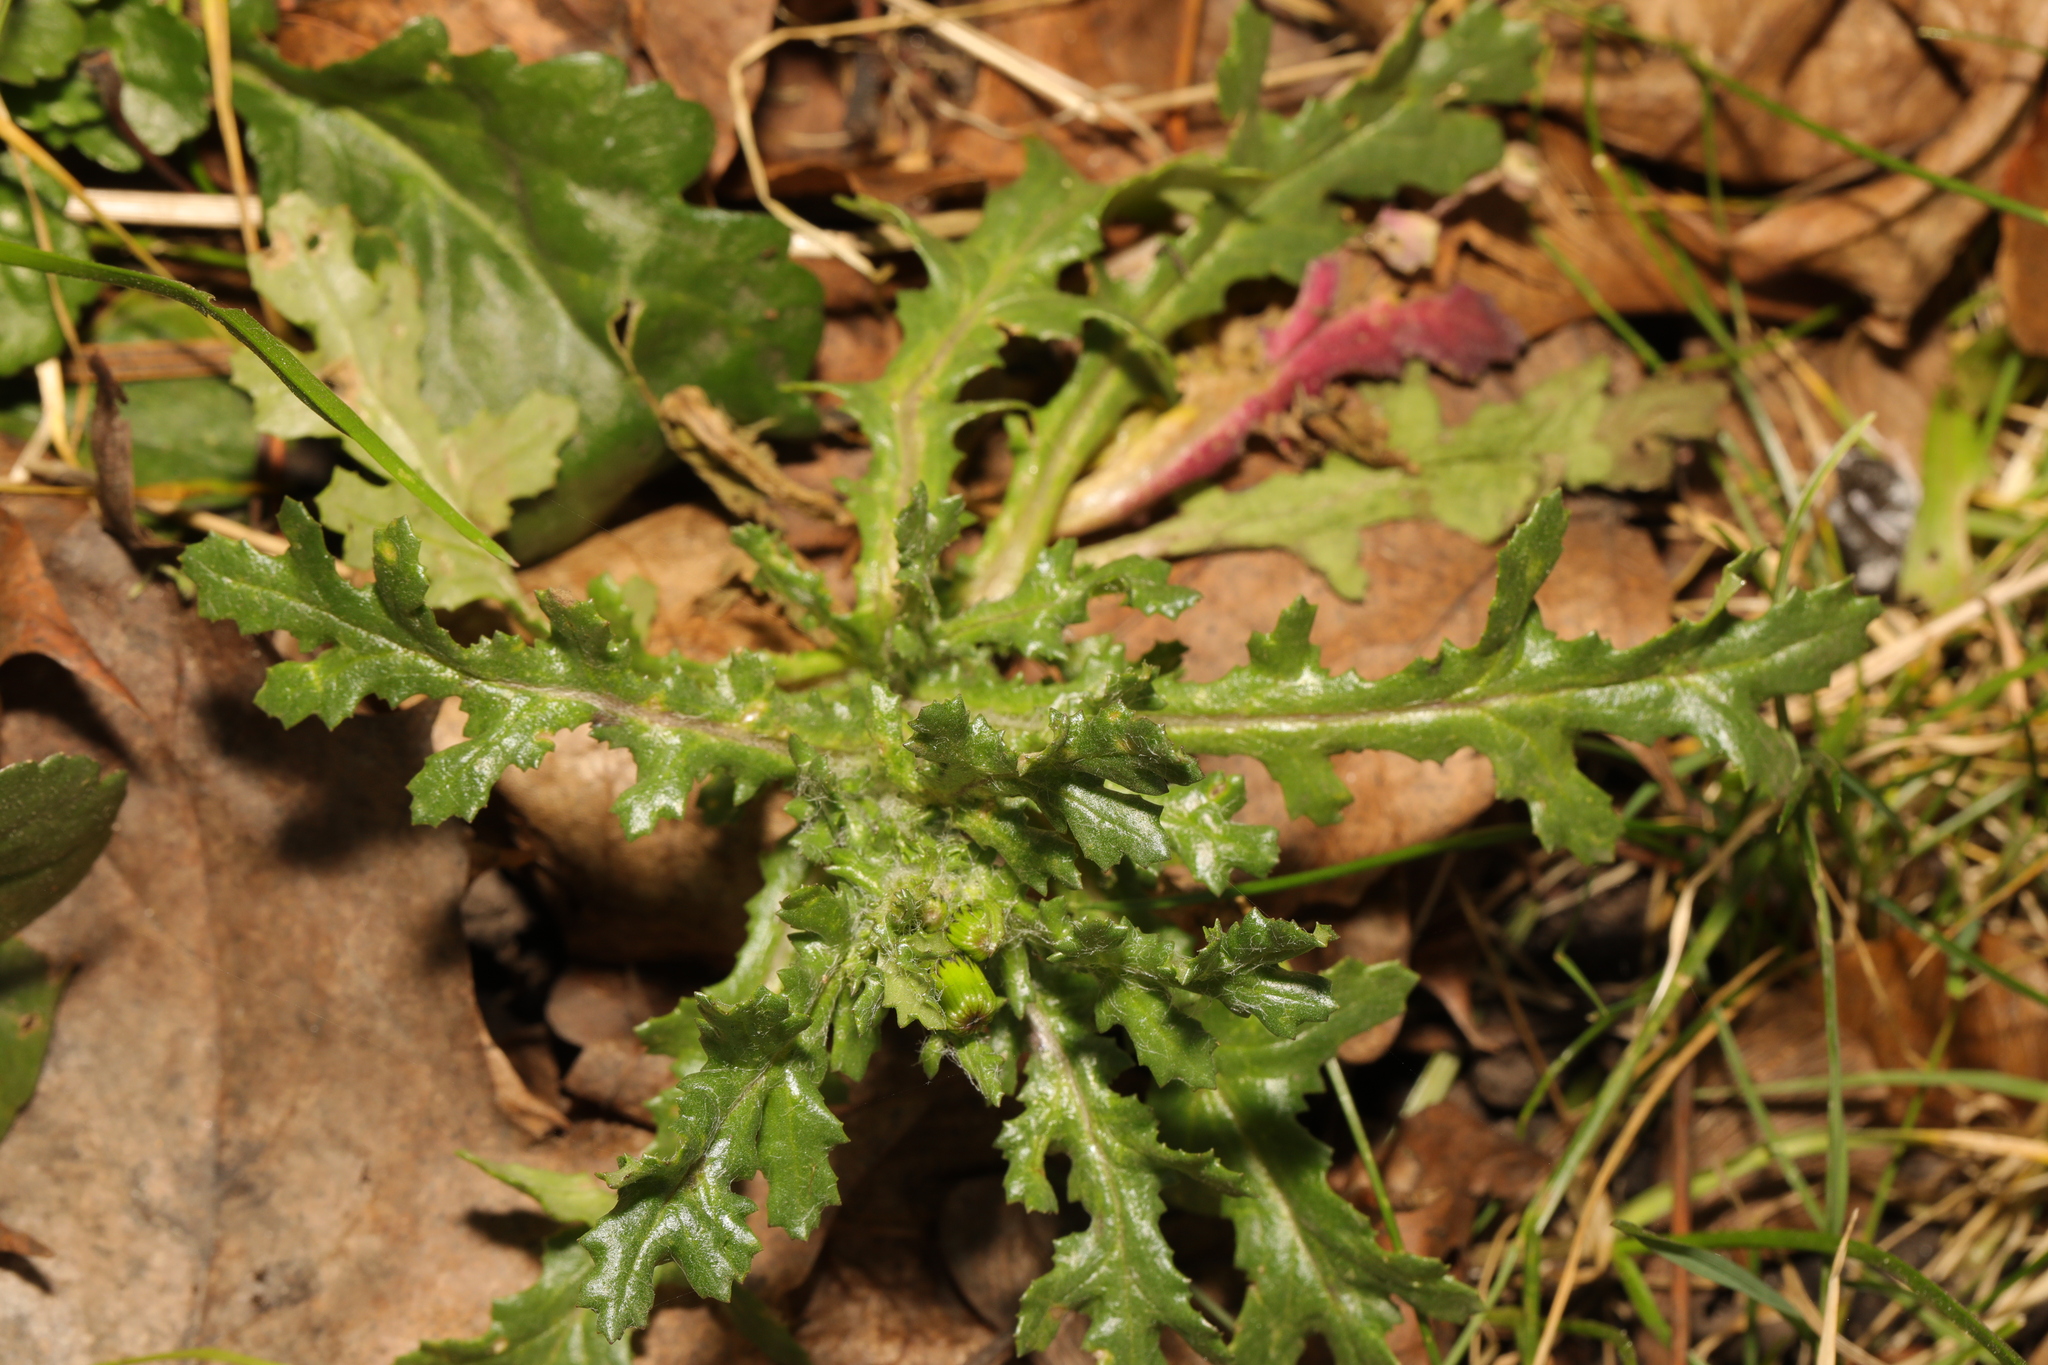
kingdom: Plantae
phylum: Tracheophyta
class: Magnoliopsida
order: Asterales
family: Asteraceae
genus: Senecio
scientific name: Senecio vulgaris
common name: Old-man-in-the-spring
